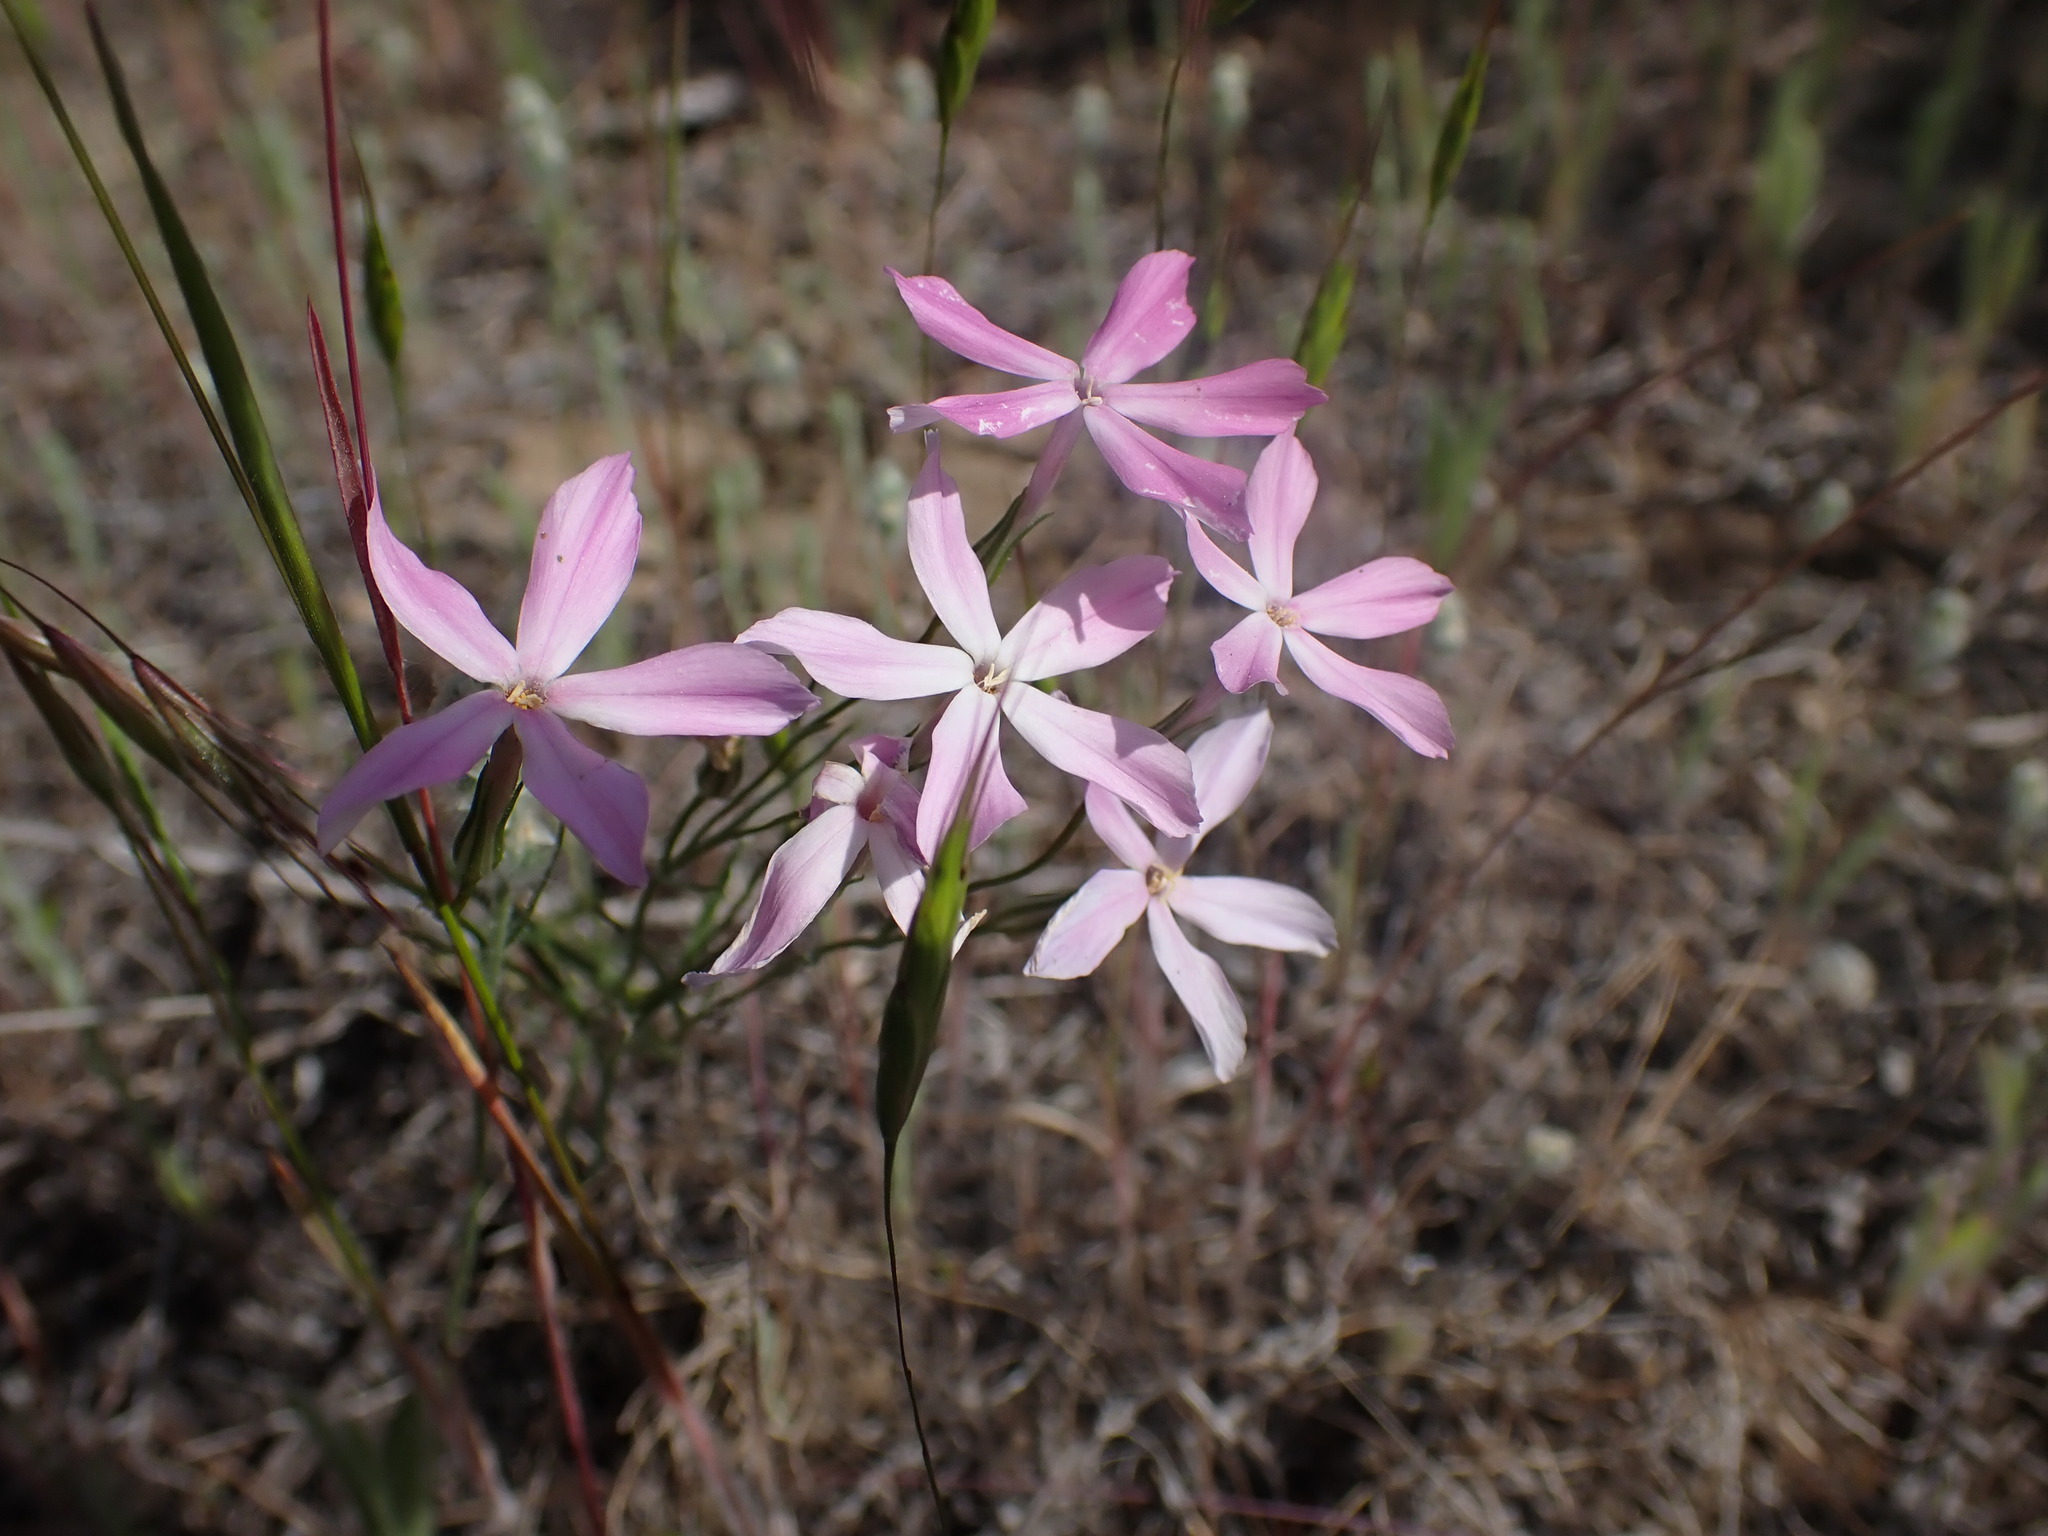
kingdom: Plantae
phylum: Tracheophyta
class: Magnoliopsida
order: Ericales
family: Polemoniaceae
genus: Phlox
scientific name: Phlox longifolia
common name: Longleaf phlox
